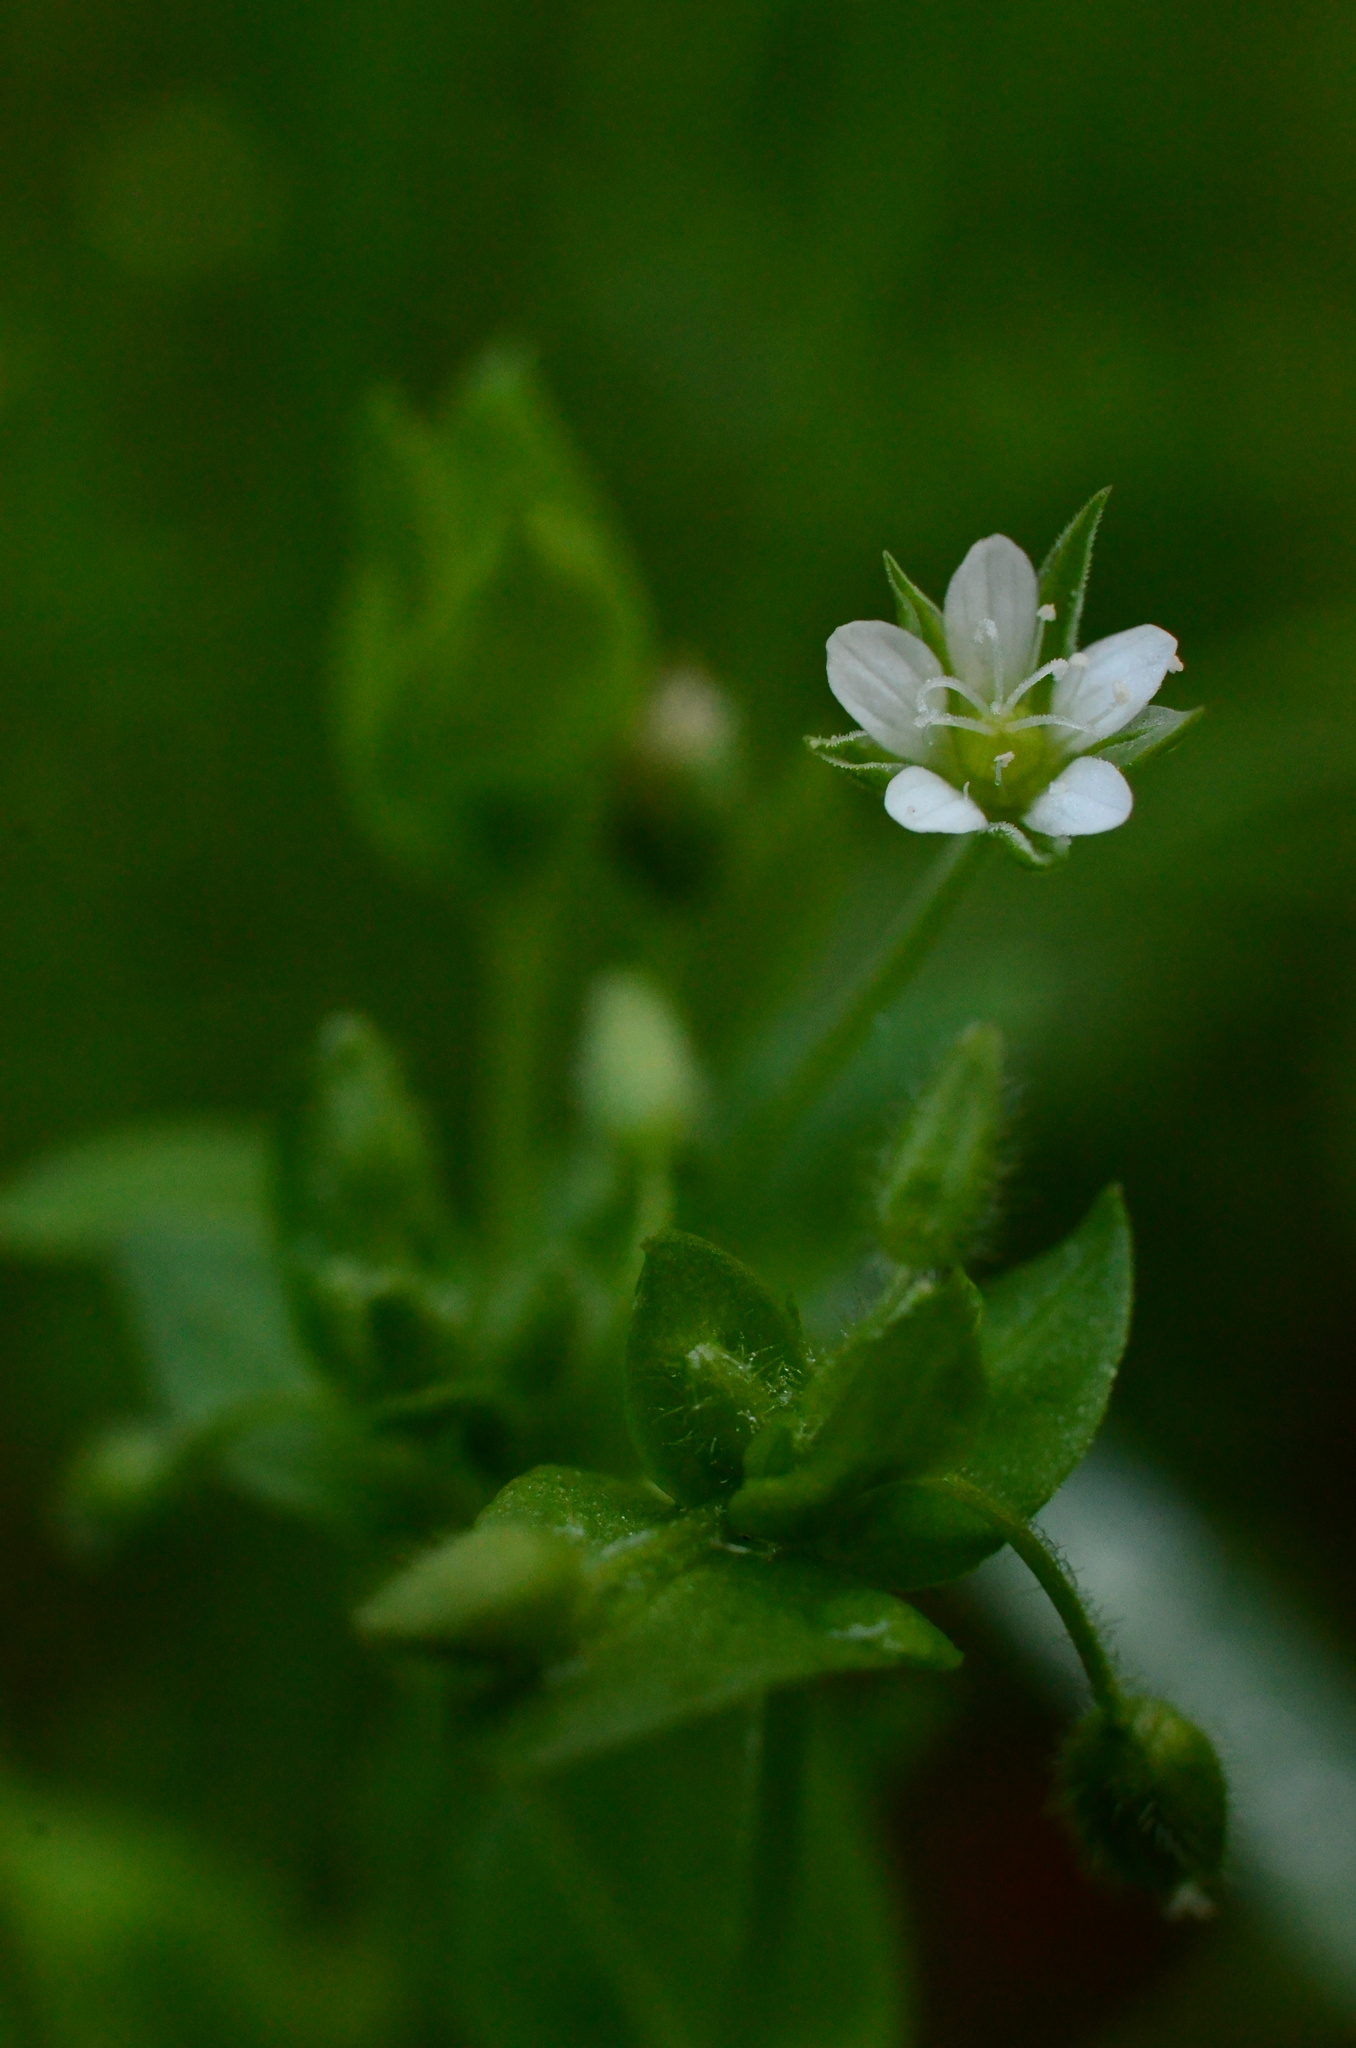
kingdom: Plantae
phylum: Tracheophyta
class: Magnoliopsida
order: Caryophyllales
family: Caryophyllaceae
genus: Moehringia
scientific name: Moehringia trinervia
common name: Three-nerved sandwort
